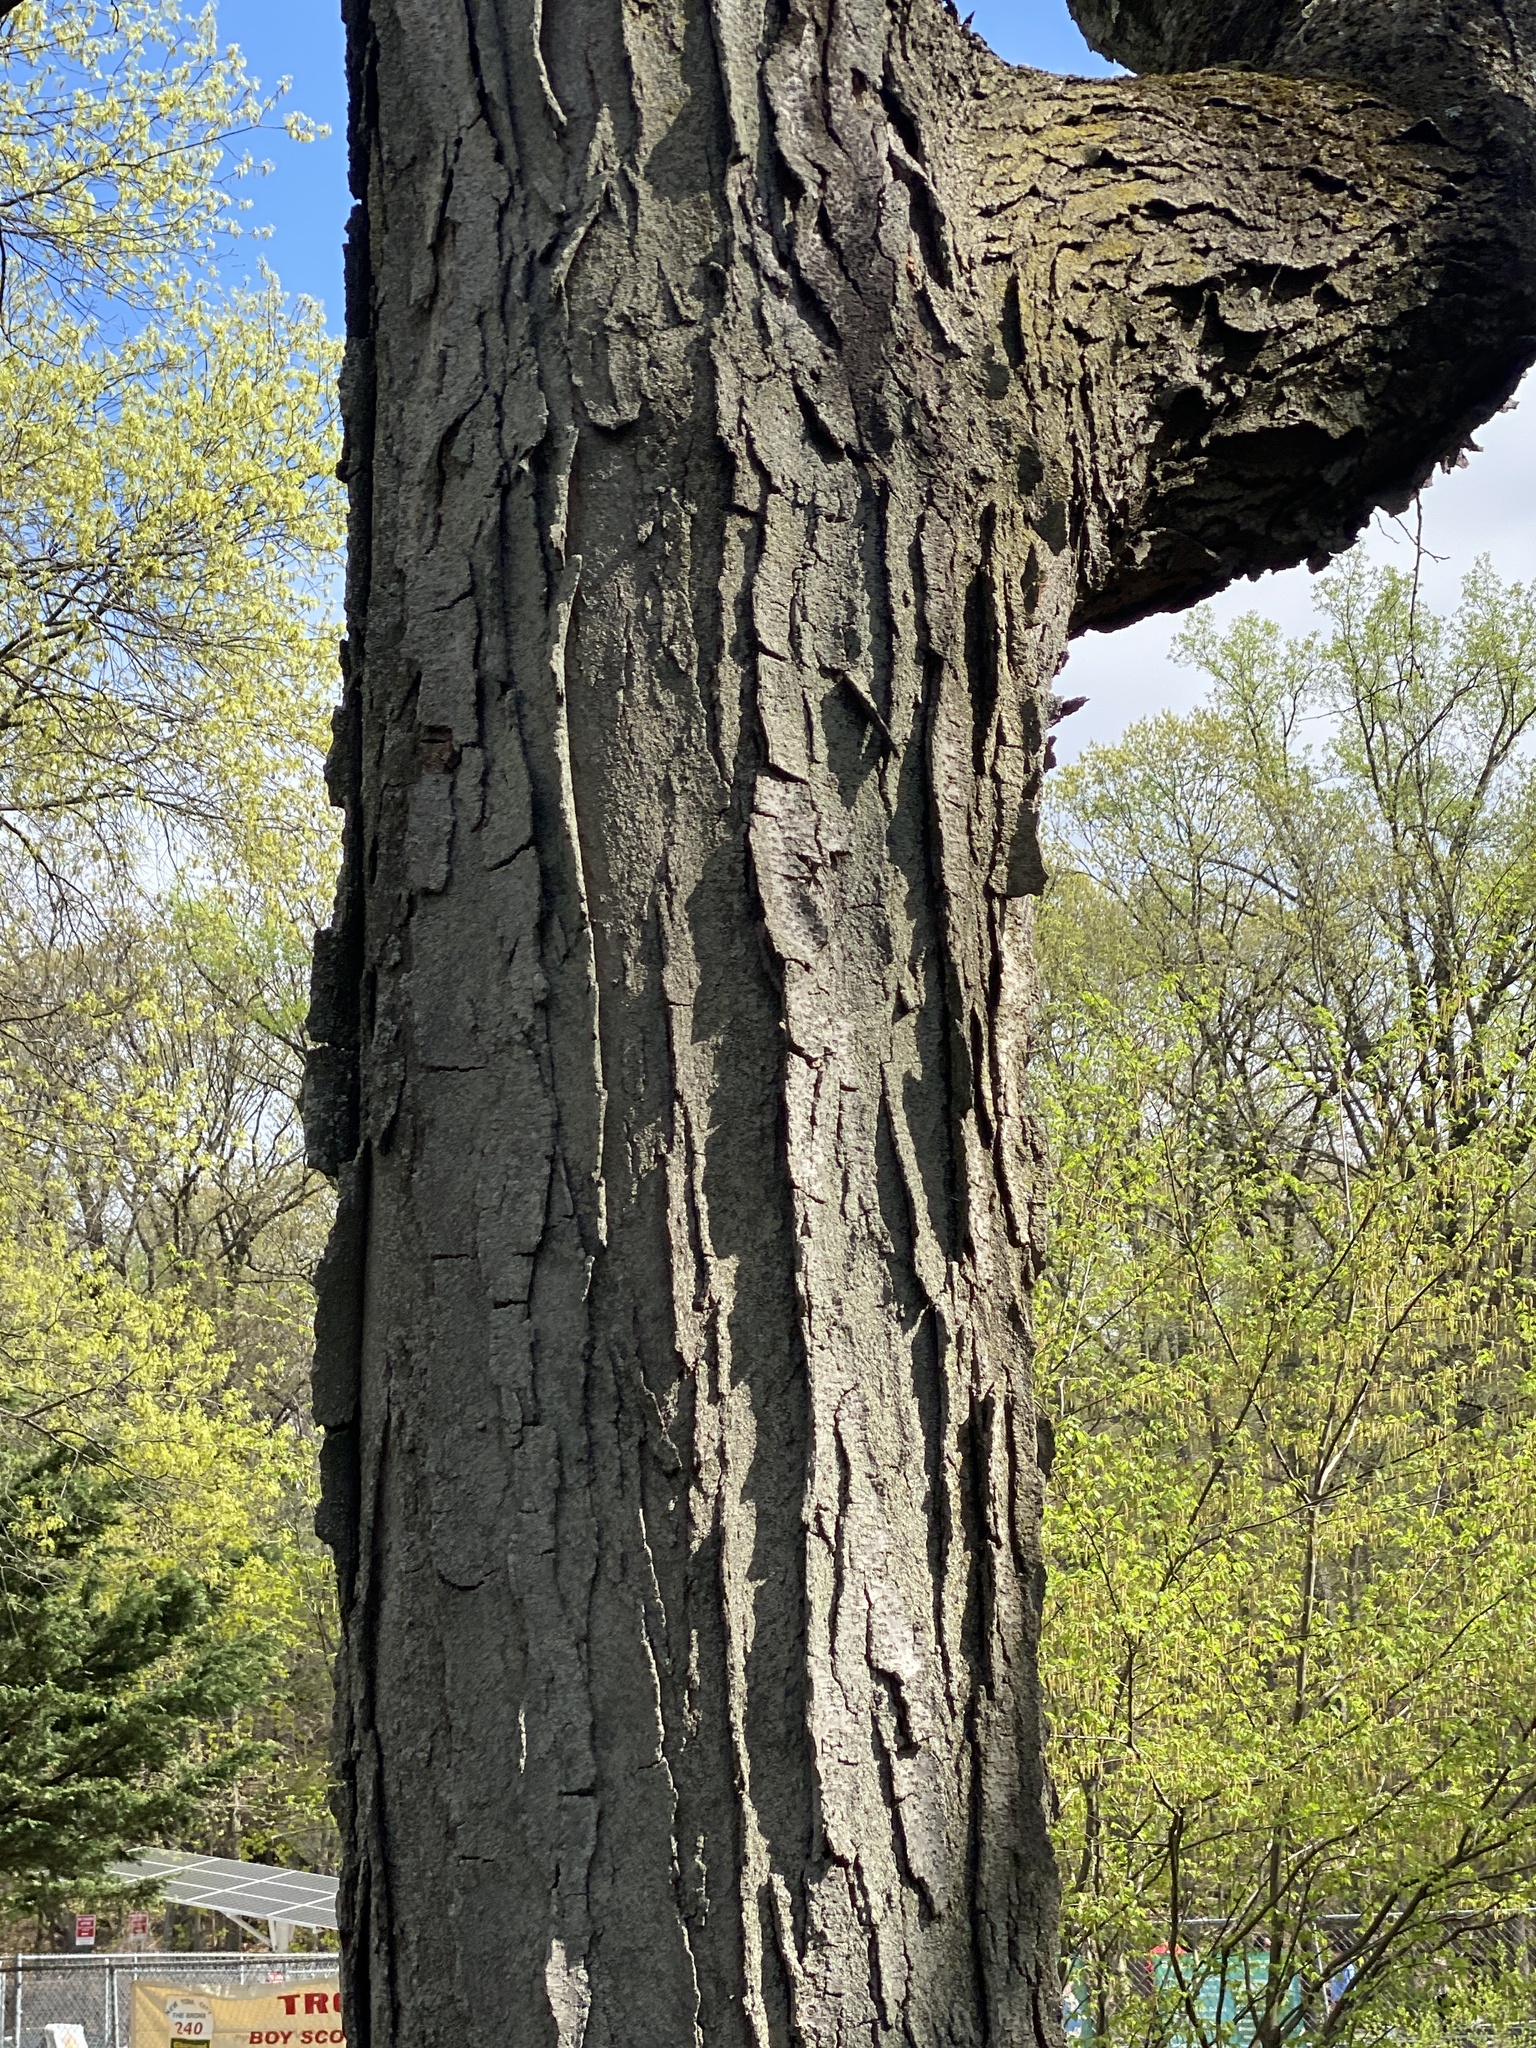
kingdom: Plantae
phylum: Tracheophyta
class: Magnoliopsida
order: Fabales
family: Fabaceae
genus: Gleditsia
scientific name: Gleditsia triacanthos
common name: Common honeylocust
